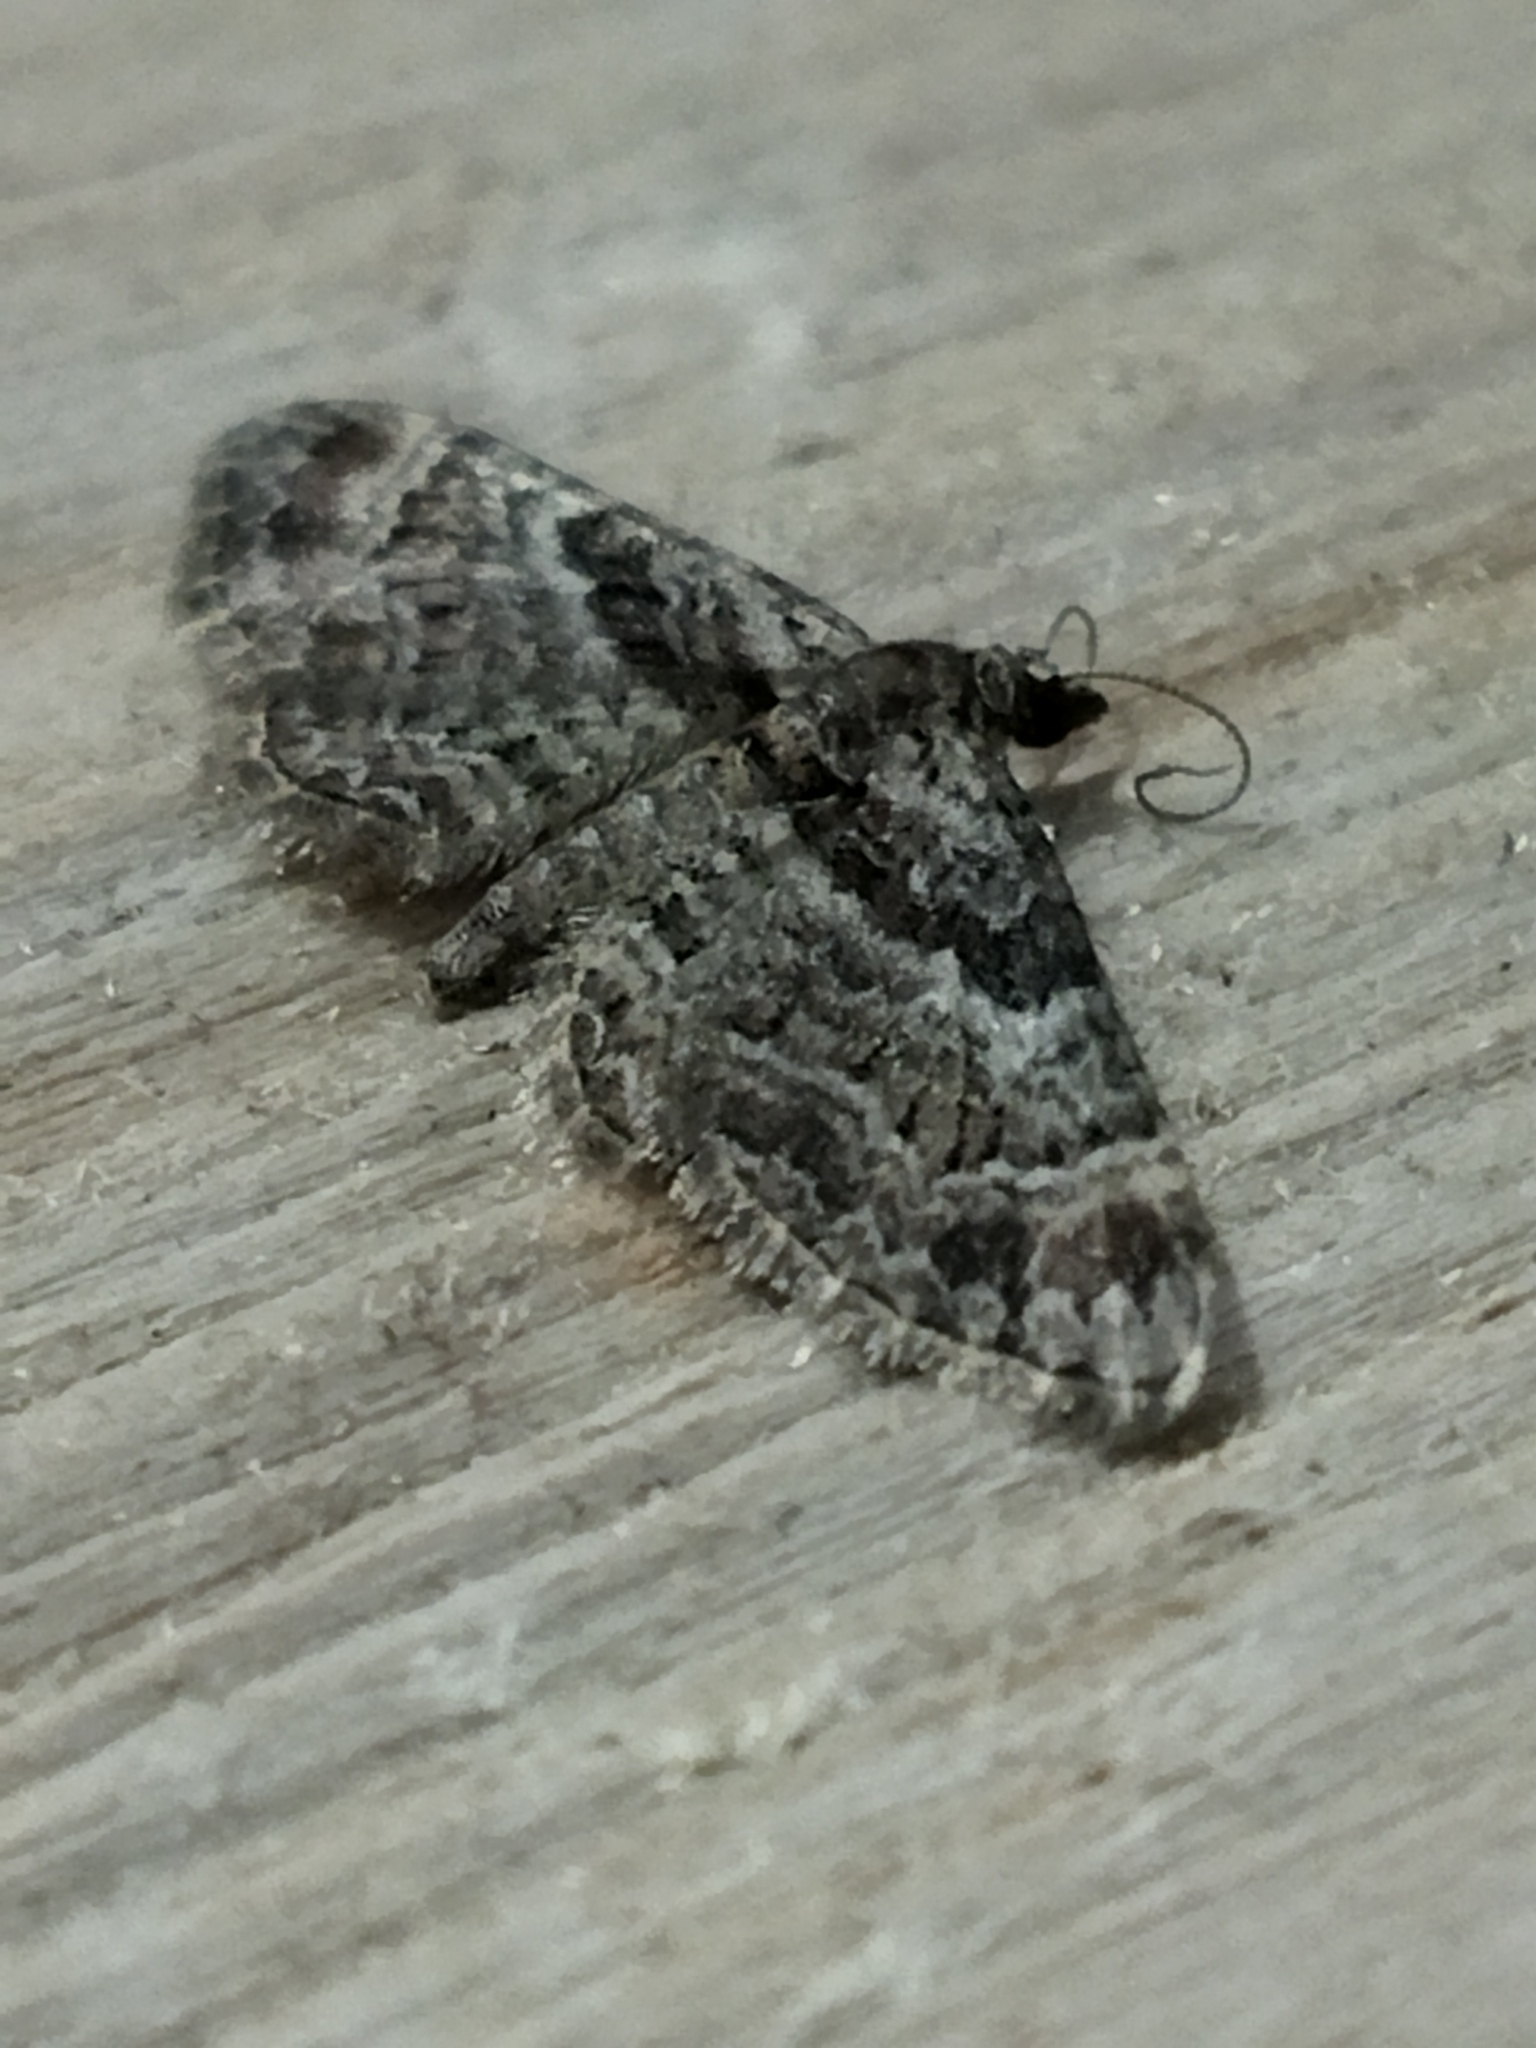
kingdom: Animalia
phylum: Arthropoda
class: Insecta
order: Lepidoptera
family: Geometridae
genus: Gymnoscelis
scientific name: Gymnoscelis rufifasciata
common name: Double-striped pug
